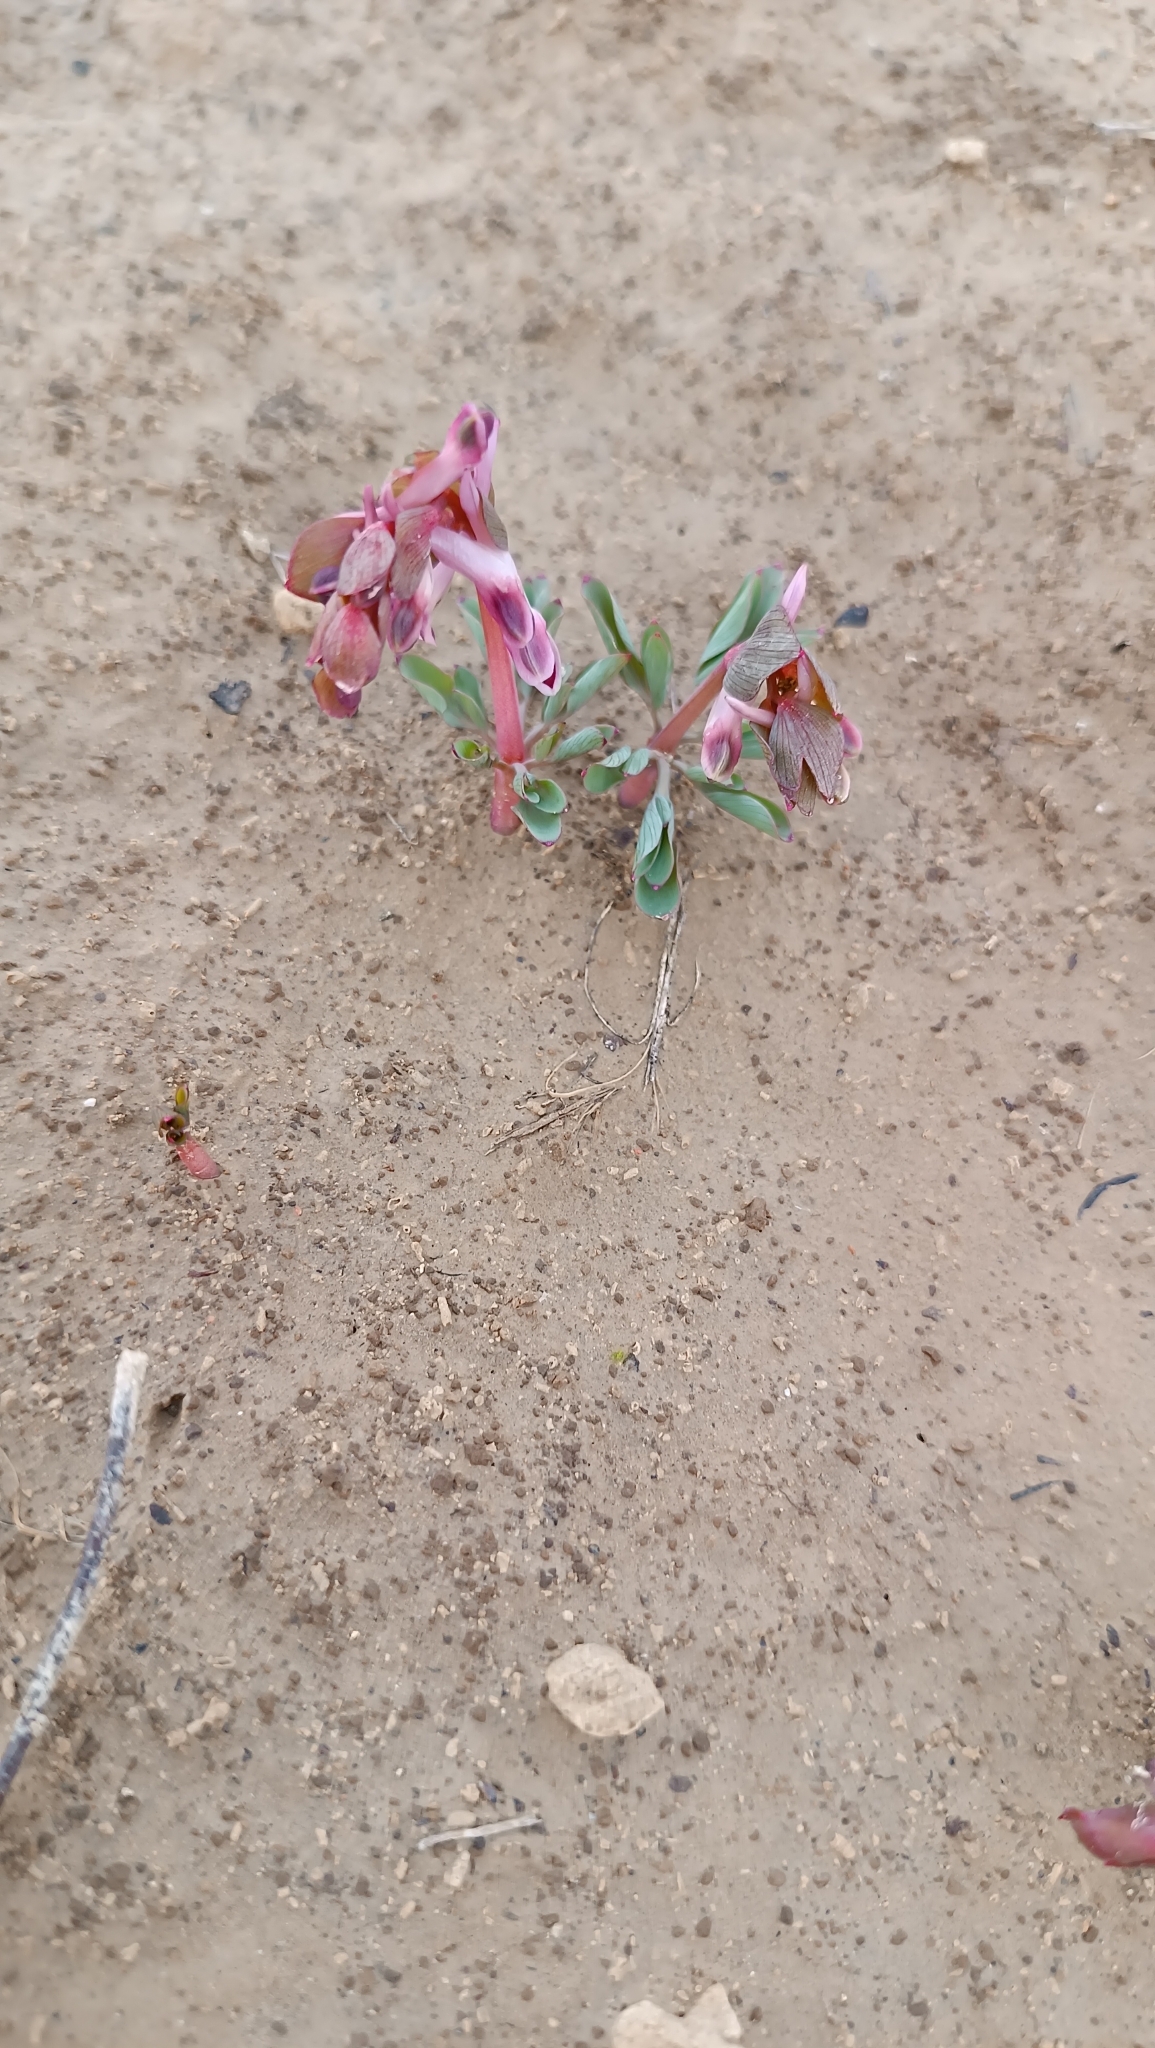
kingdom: Plantae
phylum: Tracheophyta
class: Magnoliopsida
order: Ranunculales
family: Papaveraceae
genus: Corydalis
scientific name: Corydalis ledebouriana
